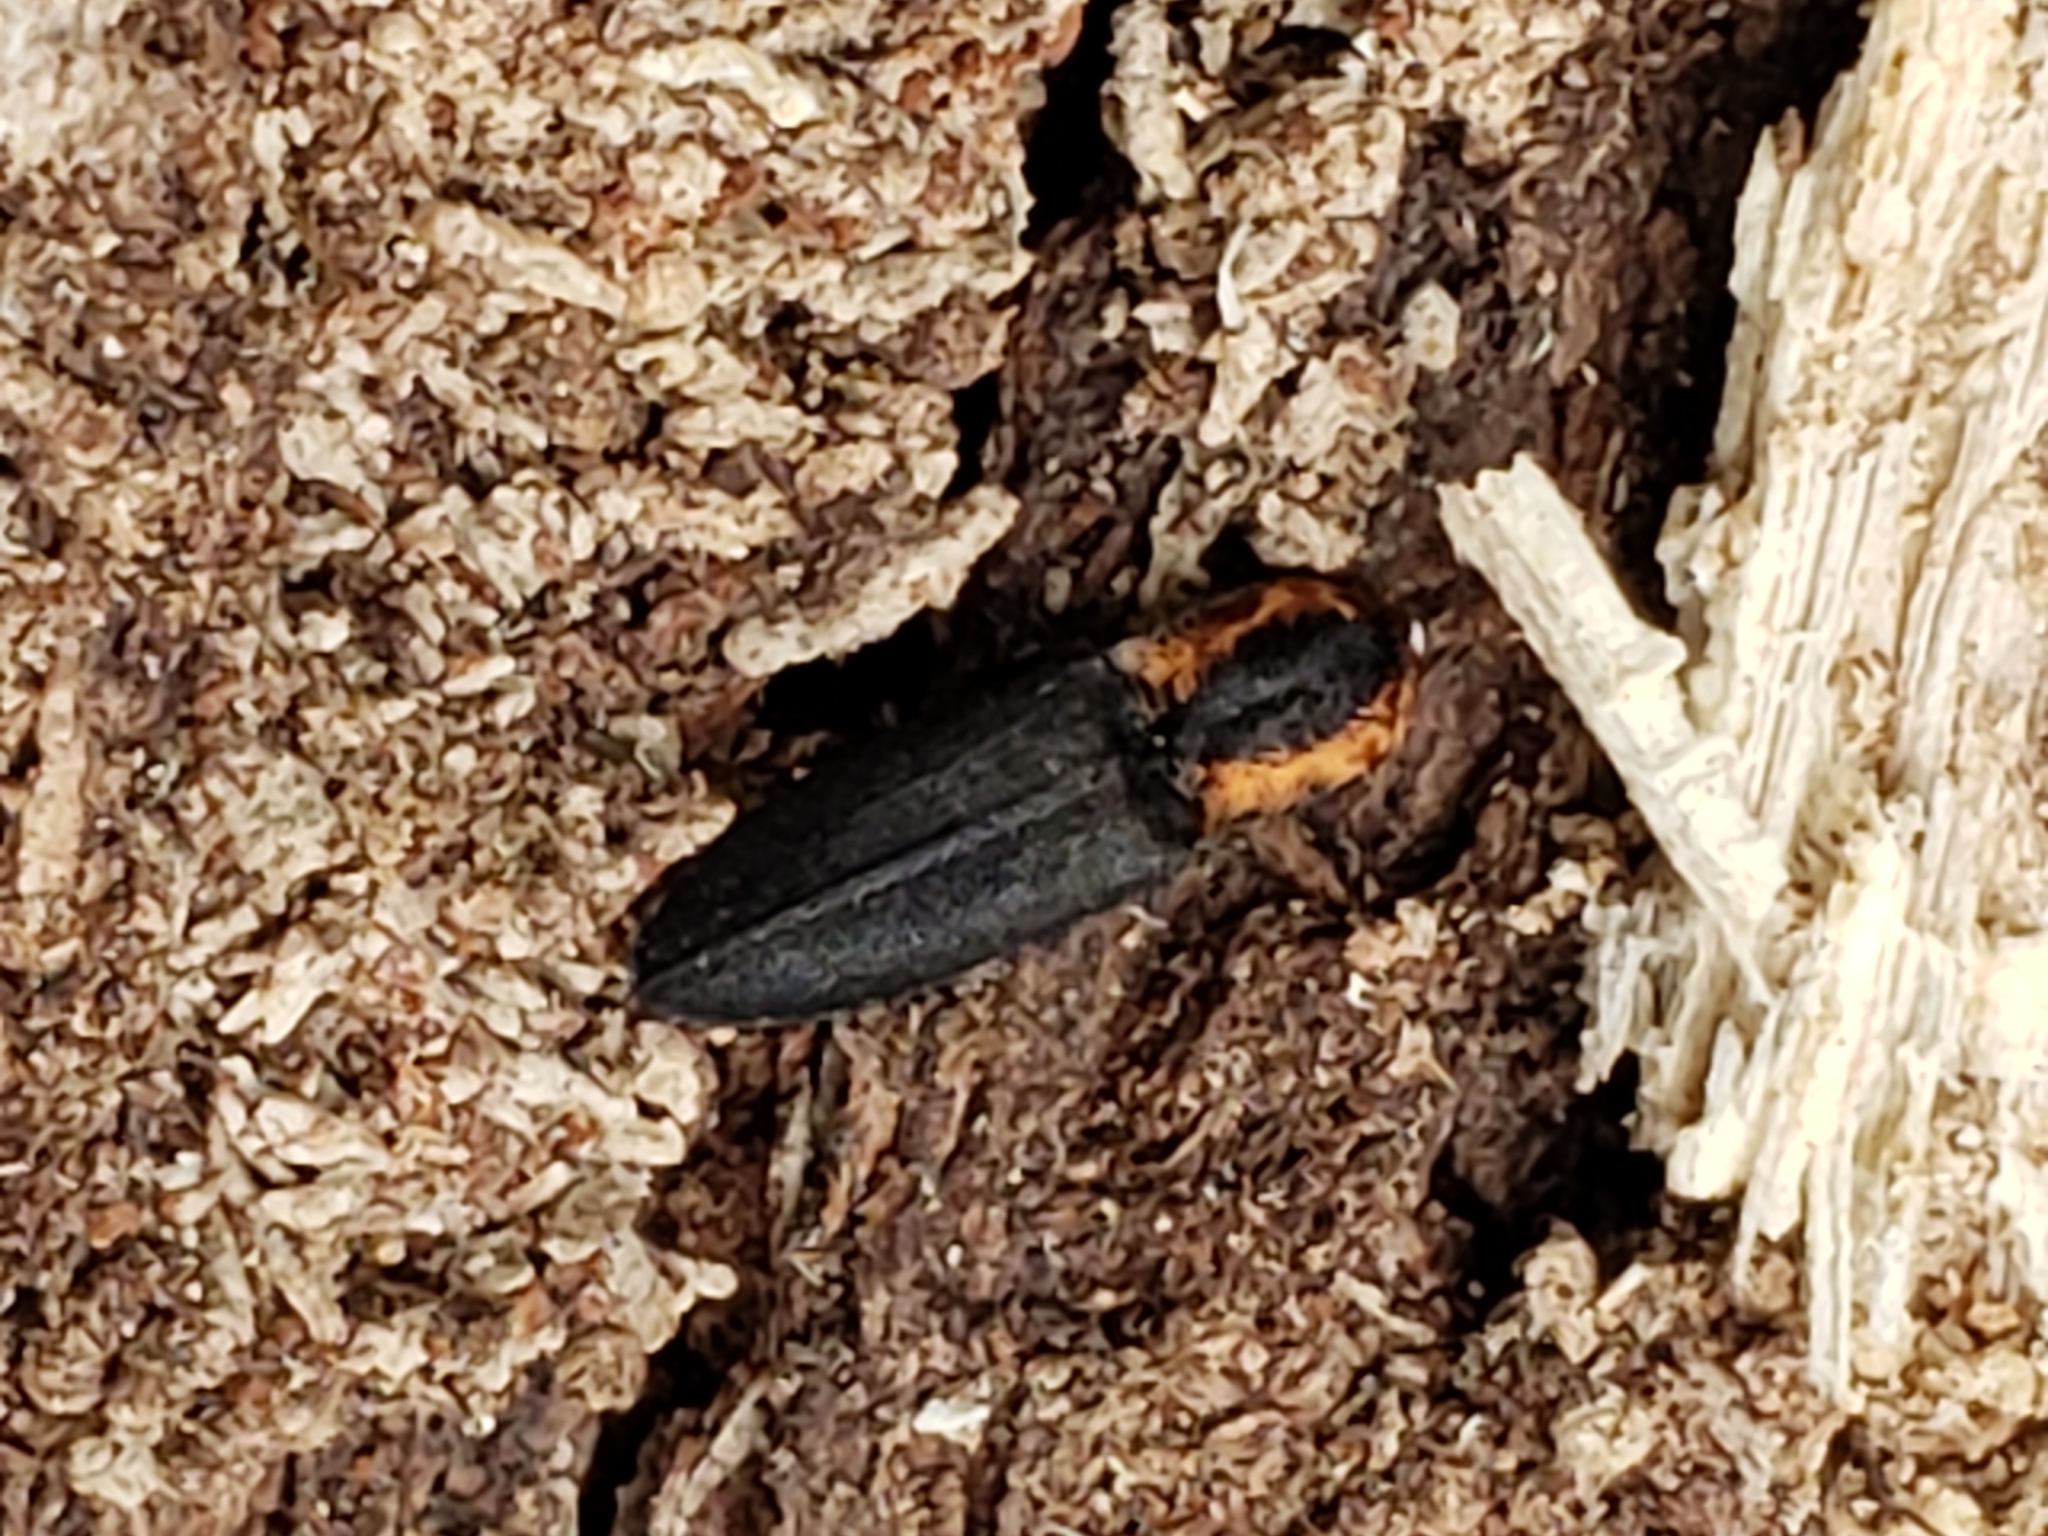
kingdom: Animalia
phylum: Arthropoda
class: Insecta
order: Coleoptera
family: Elateridae
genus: Lacon
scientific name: Lacon discoideus
